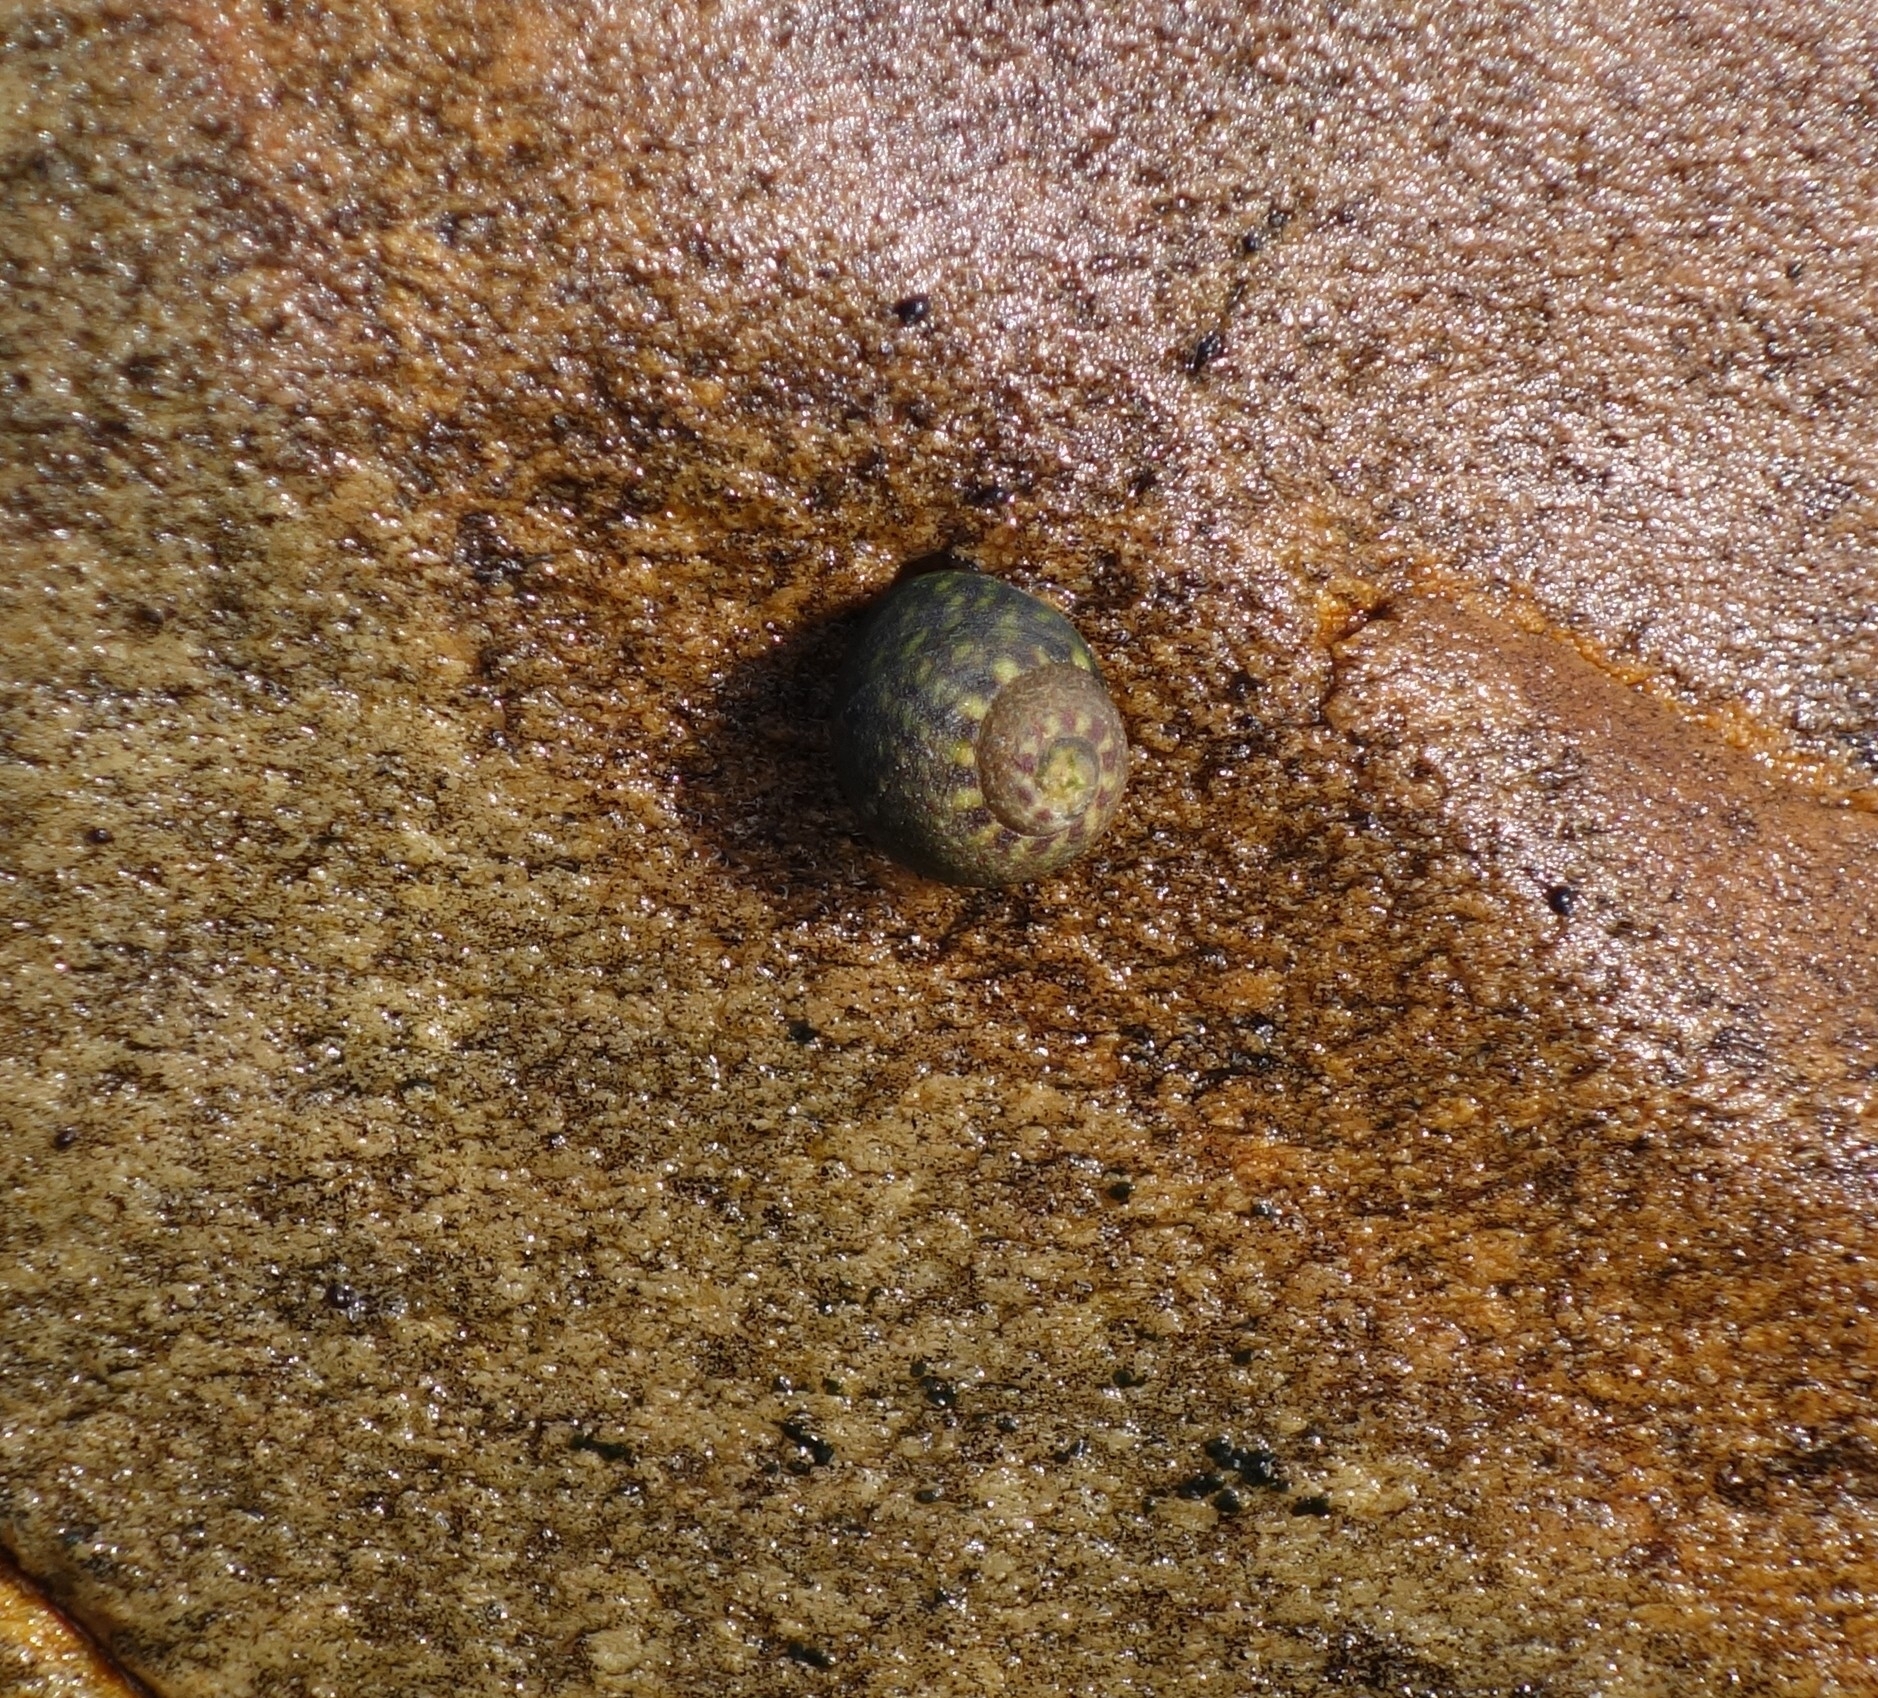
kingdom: Animalia
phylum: Mollusca
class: Gastropoda
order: Trochida
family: Trochidae
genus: Oxystele
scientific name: Oxystele antoni
